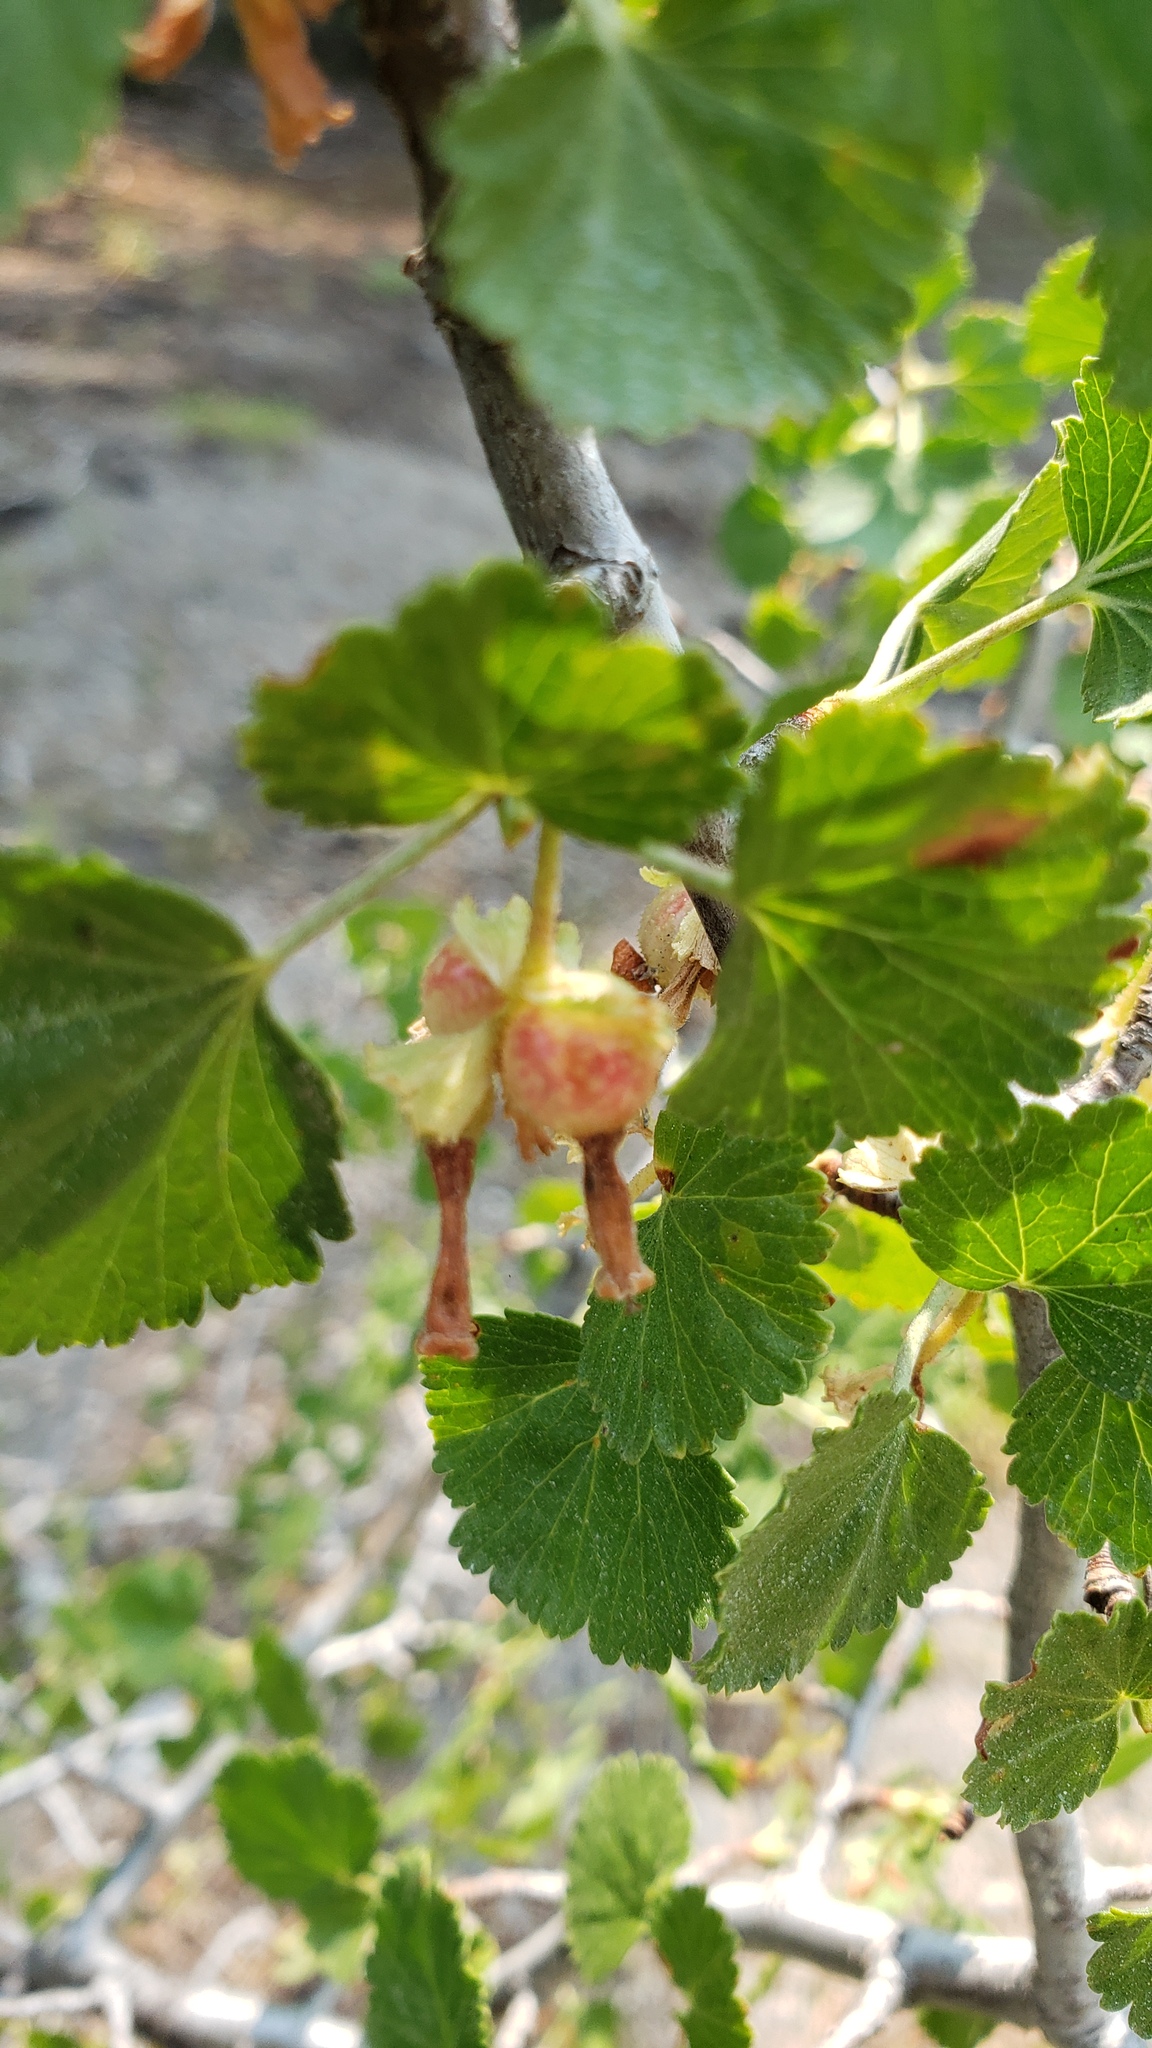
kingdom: Plantae
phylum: Tracheophyta
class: Magnoliopsida
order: Saxifragales
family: Grossulariaceae
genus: Ribes
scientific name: Ribes cereum
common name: Wax currant
